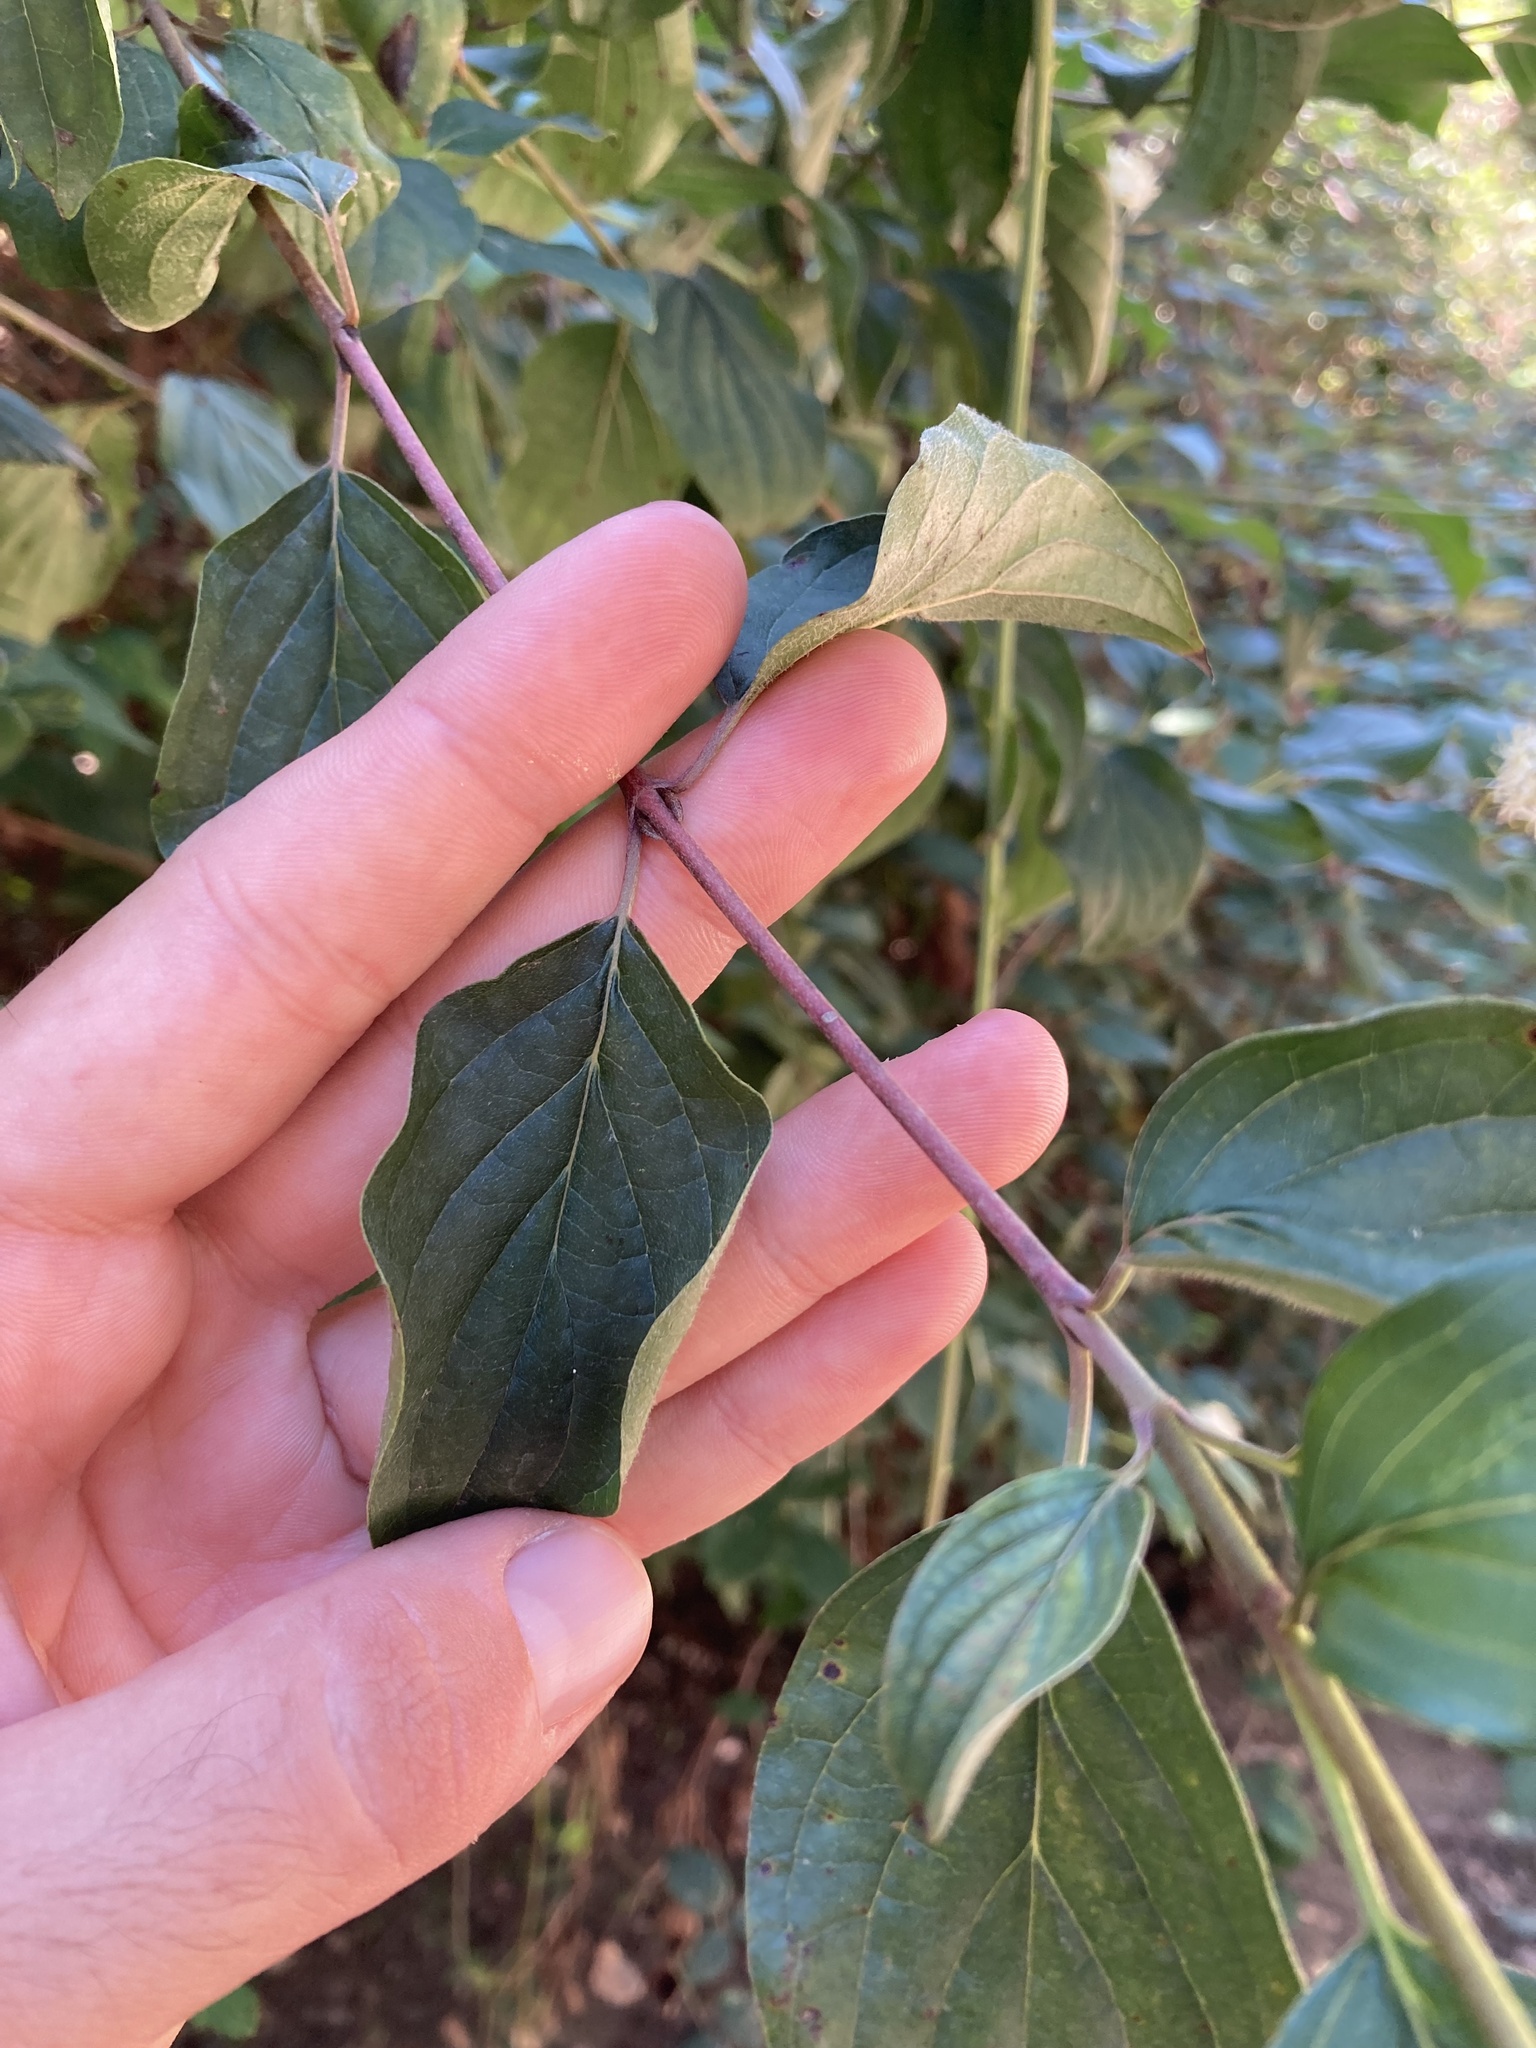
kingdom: Plantae
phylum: Tracheophyta
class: Magnoliopsida
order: Cornales
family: Cornaceae
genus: Cornus
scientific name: Cornus sanguinea
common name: Dogwood
